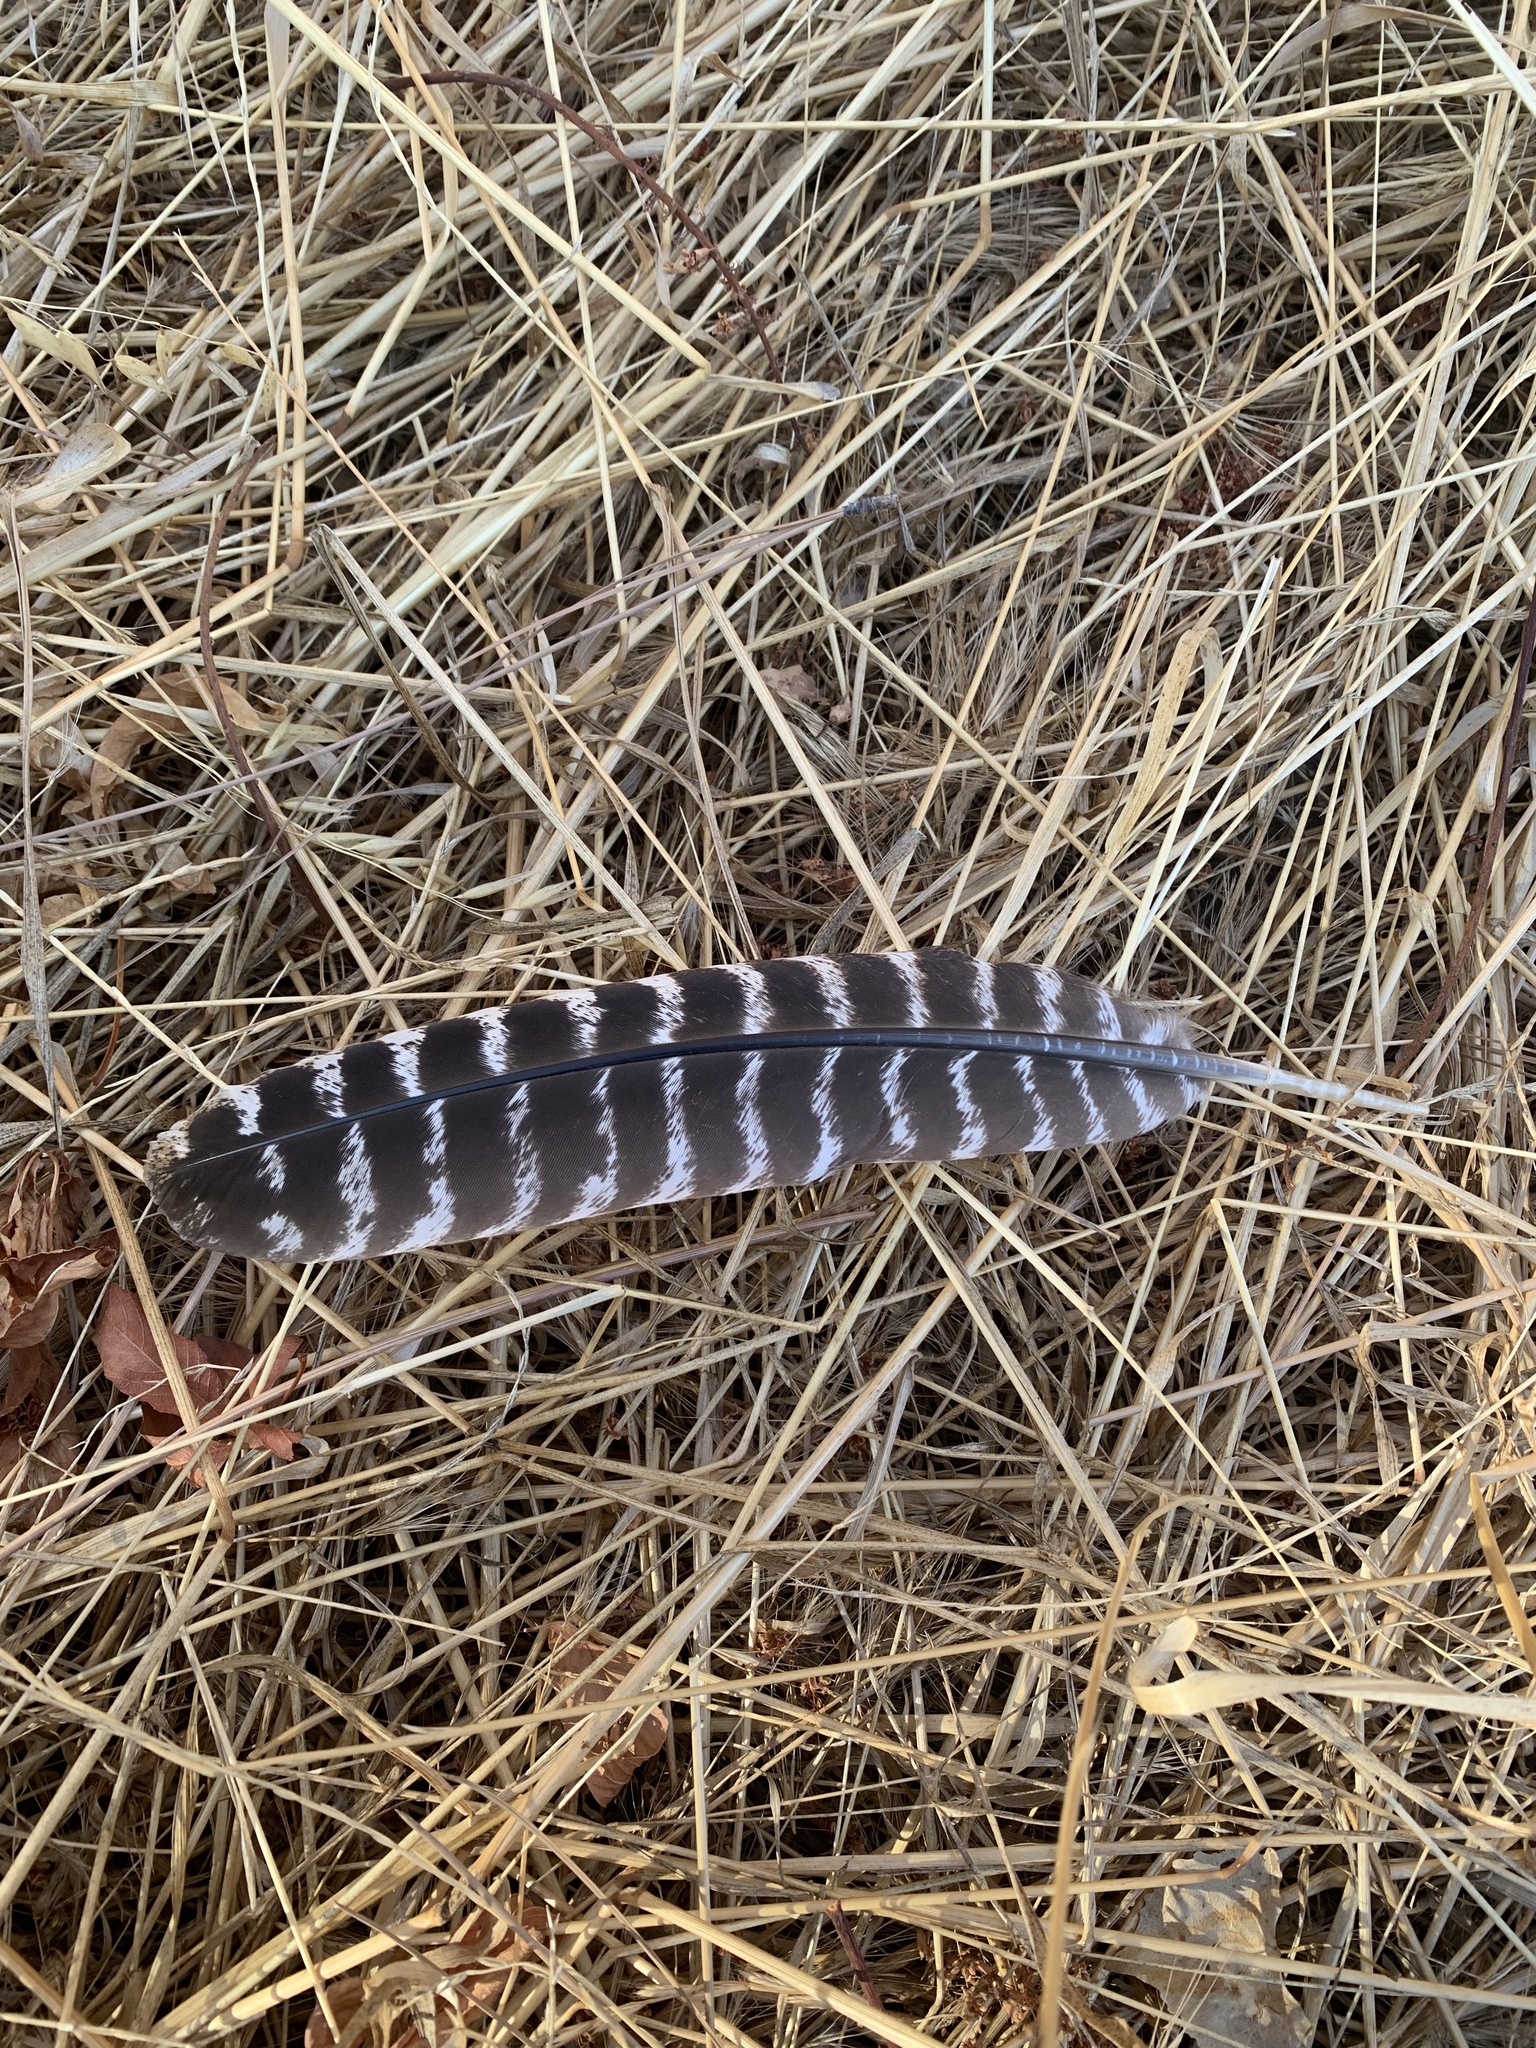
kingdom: Animalia
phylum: Chordata
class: Aves
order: Galliformes
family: Phasianidae
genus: Meleagris
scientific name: Meleagris gallopavo
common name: Wild turkey
